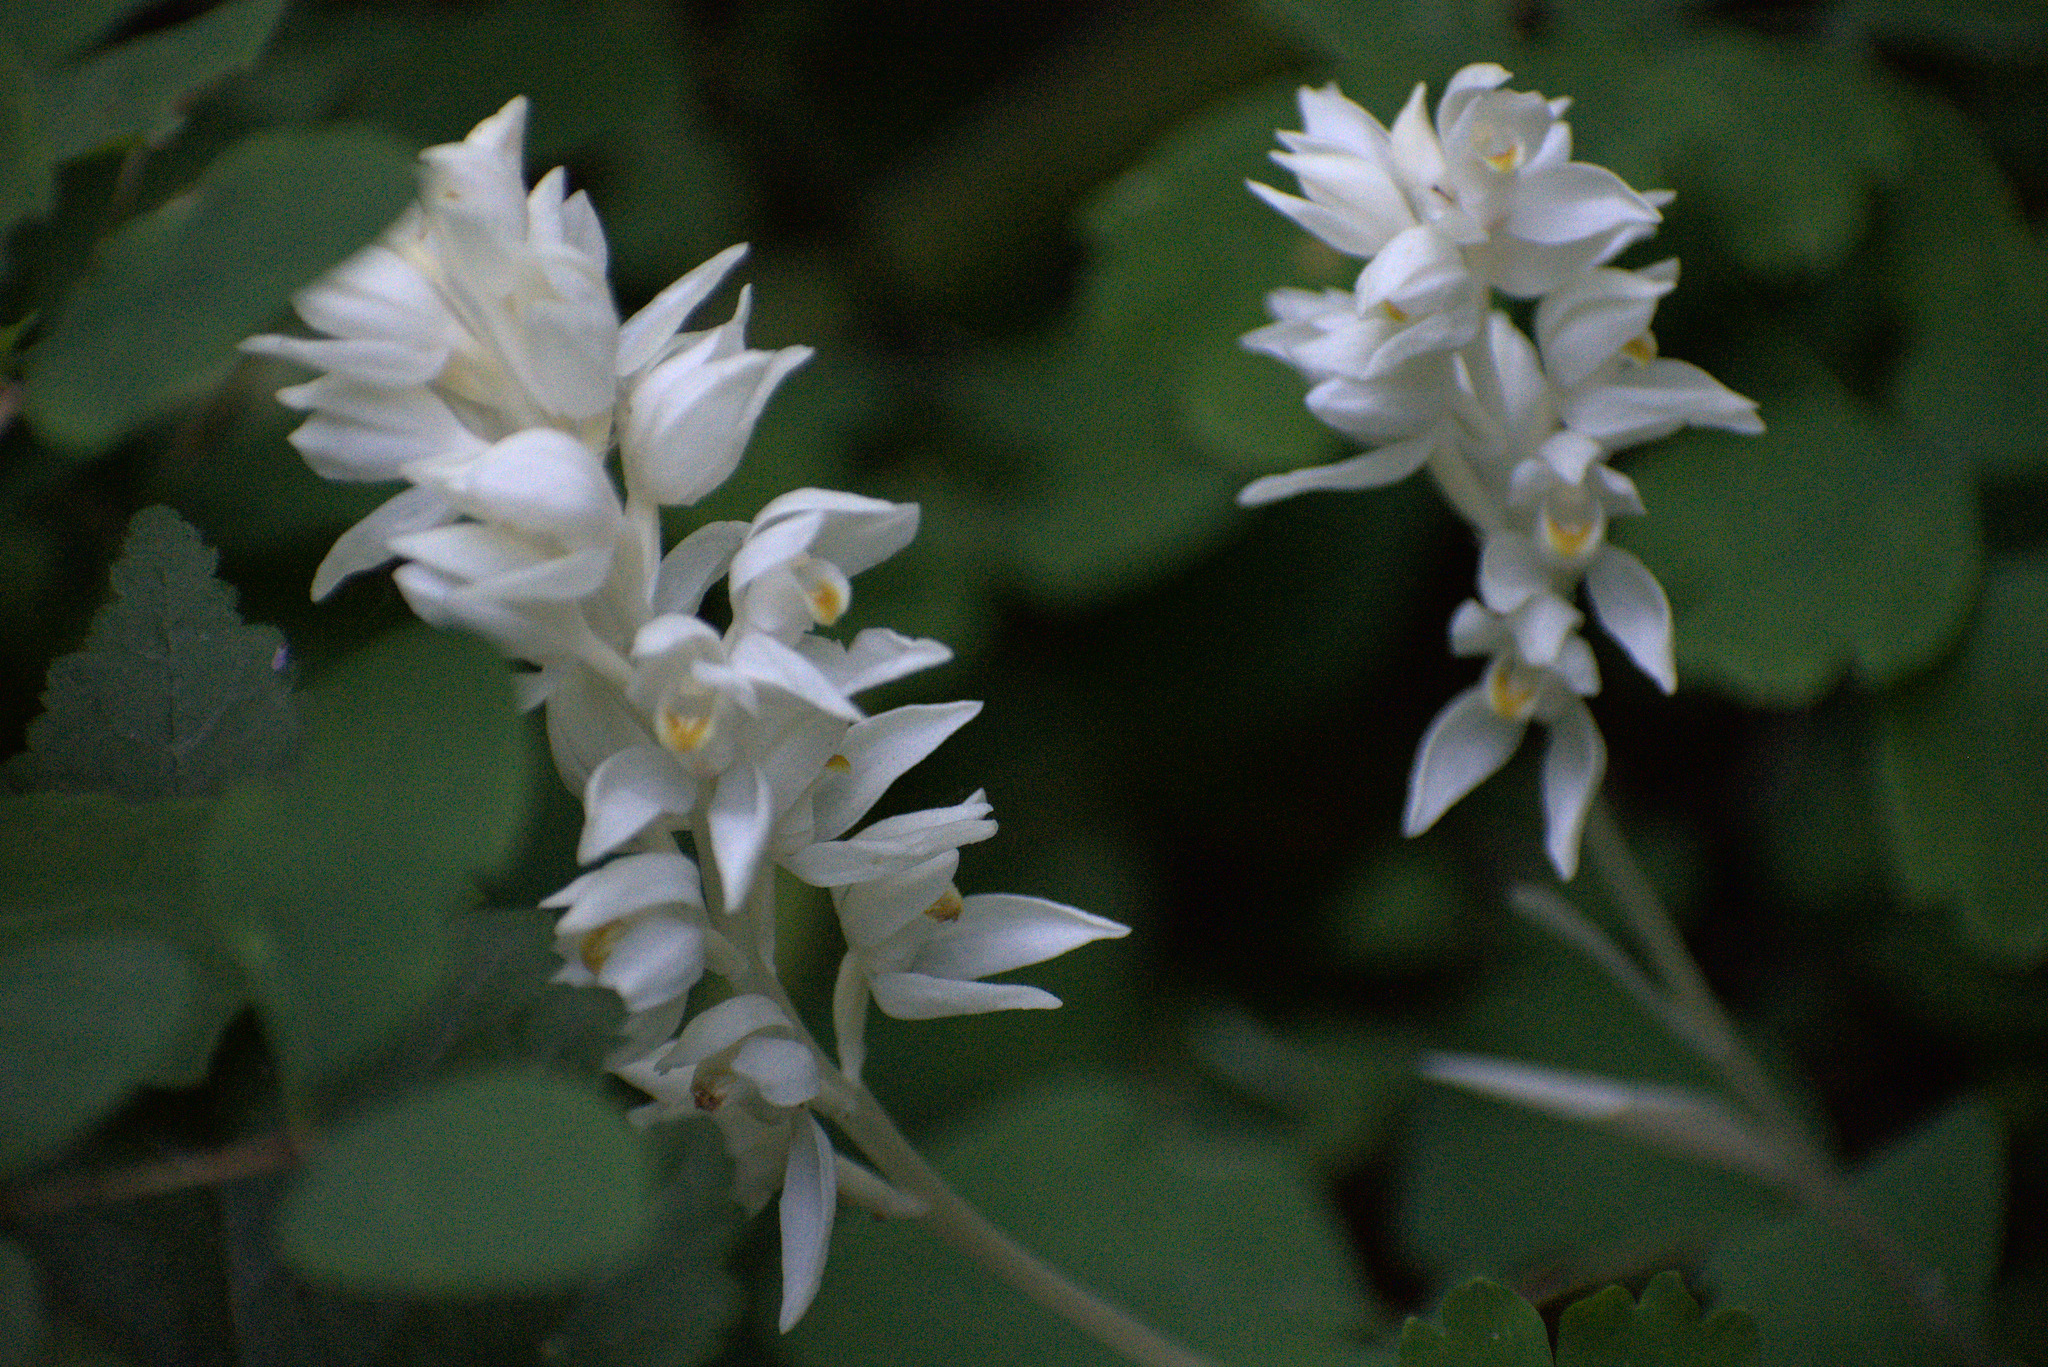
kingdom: Plantae
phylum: Tracheophyta
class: Liliopsida
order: Asparagales
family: Orchidaceae
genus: Cephalanthera
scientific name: Cephalanthera austiniae
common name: Phantom orchid
